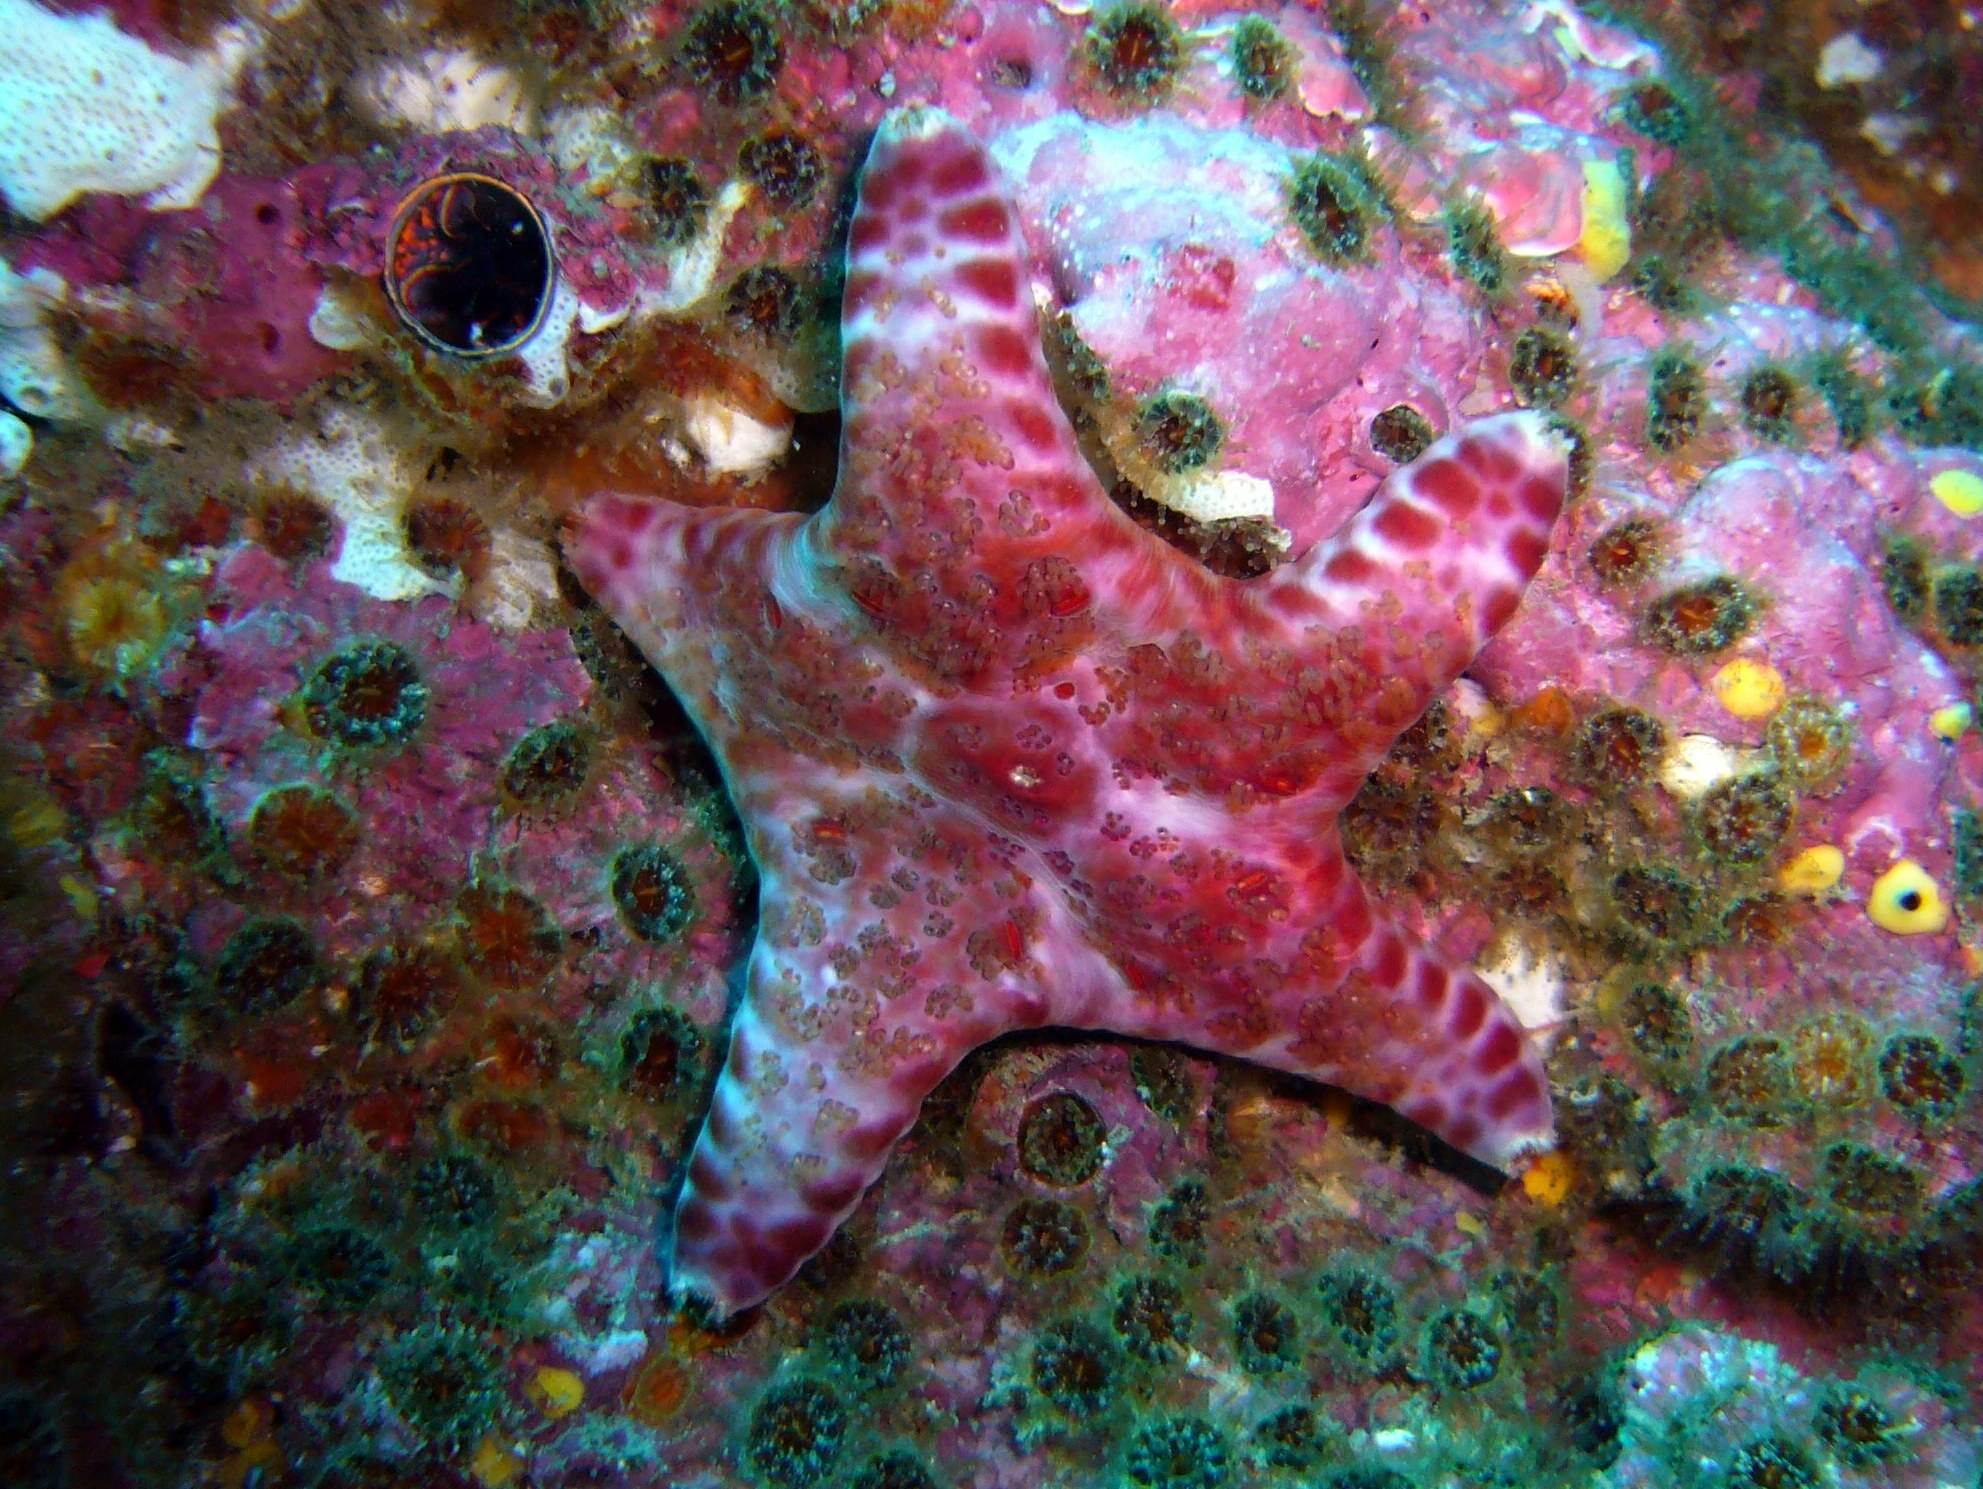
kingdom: Animalia
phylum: Echinodermata
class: Asteroidea
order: Valvatida
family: Asteropseidae
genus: Petricia
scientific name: Petricia vernicina
